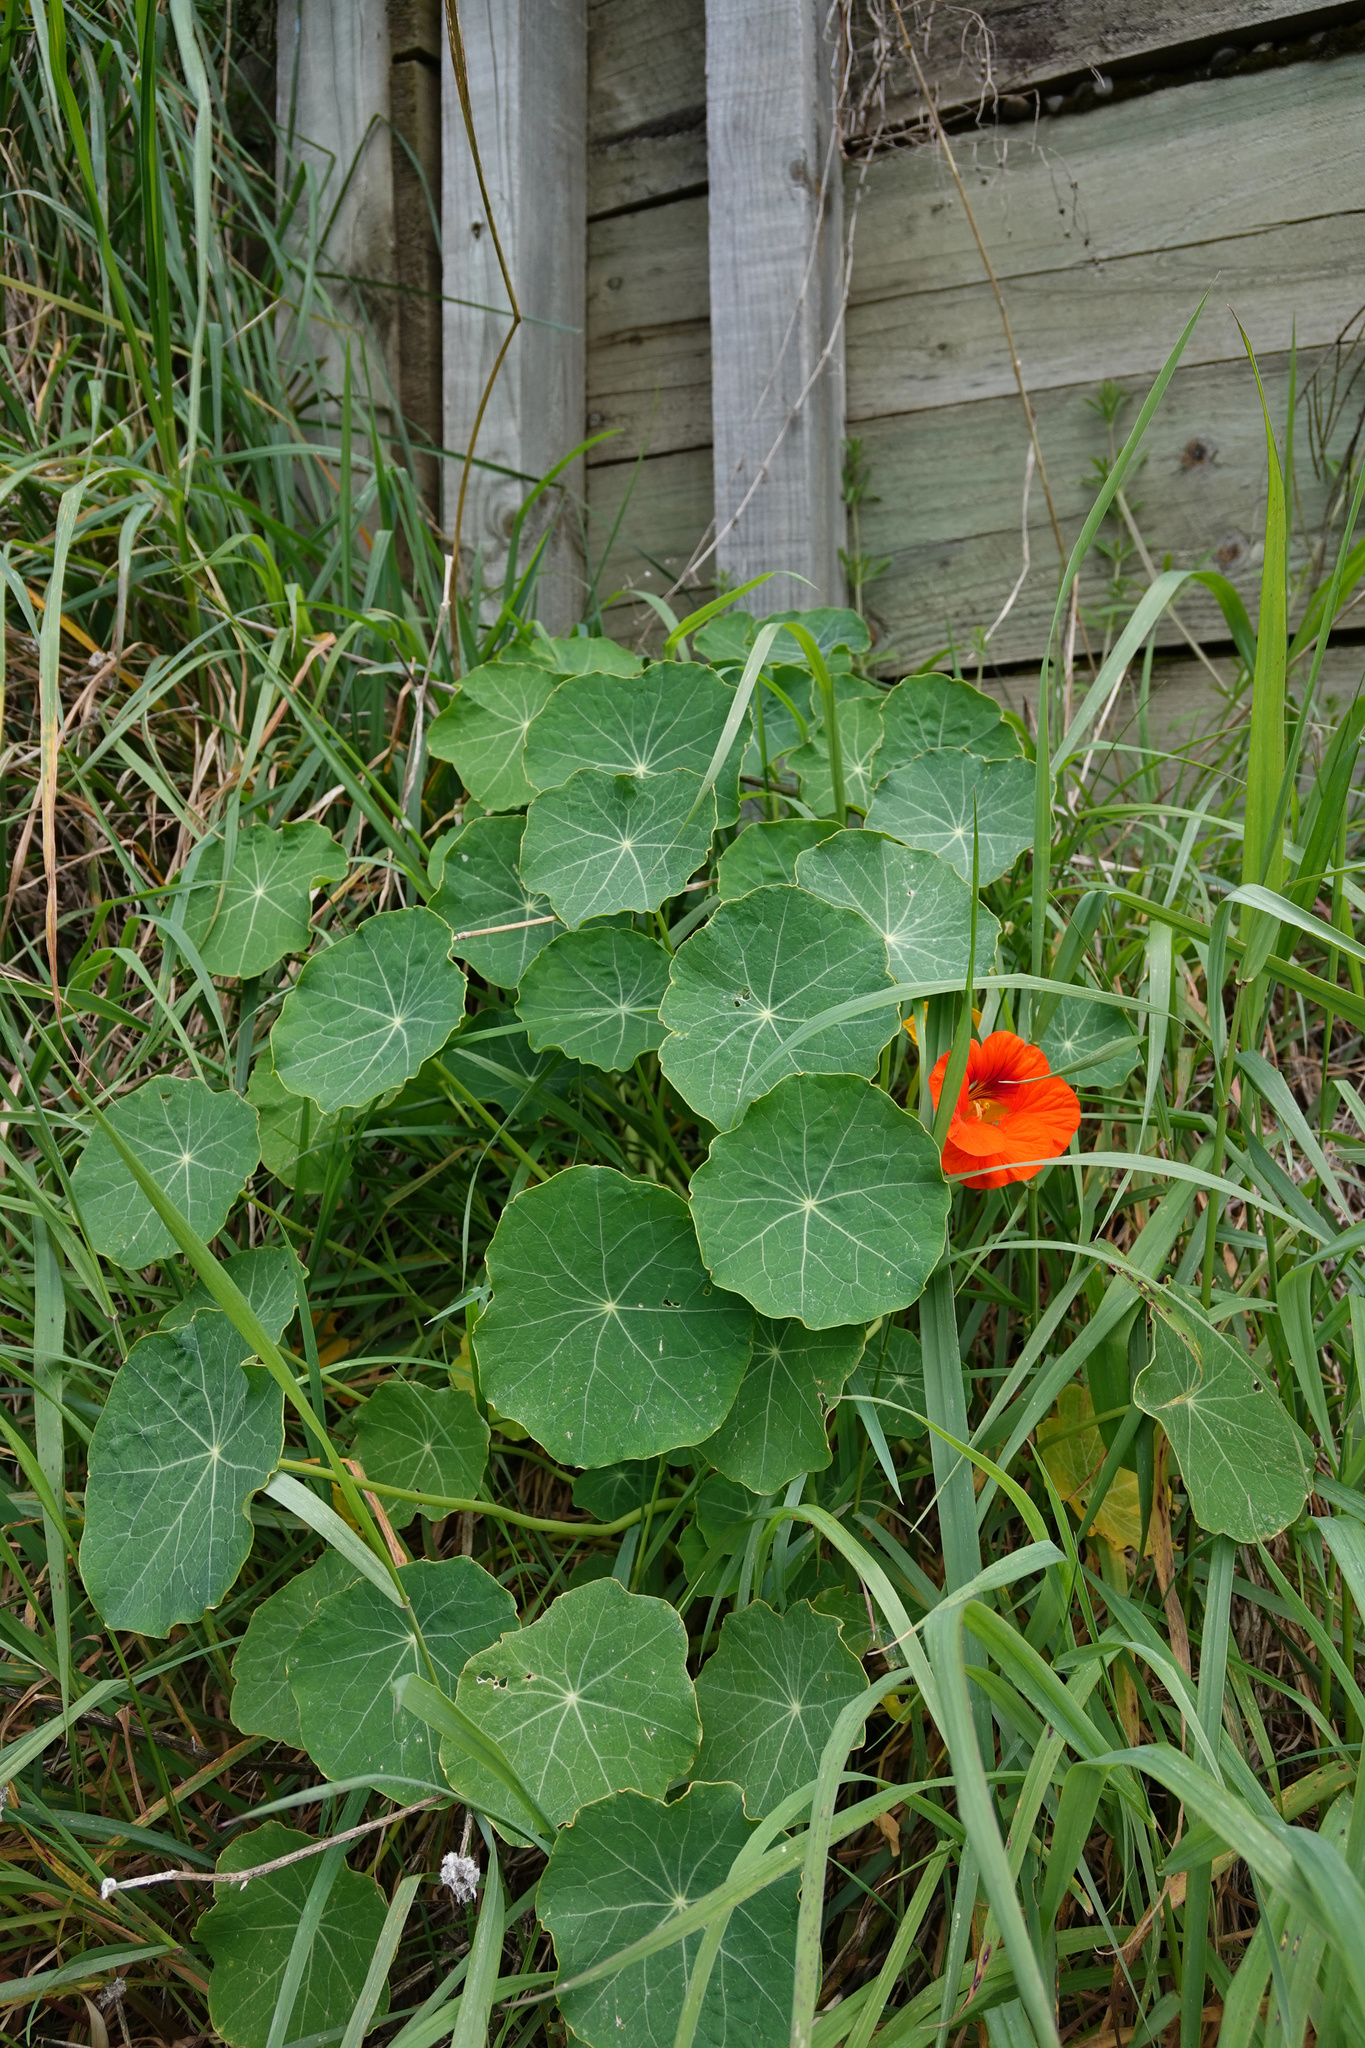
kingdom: Plantae
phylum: Tracheophyta
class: Magnoliopsida
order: Brassicales
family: Tropaeolaceae
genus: Tropaeolum
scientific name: Tropaeolum majus
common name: Nasturtium
